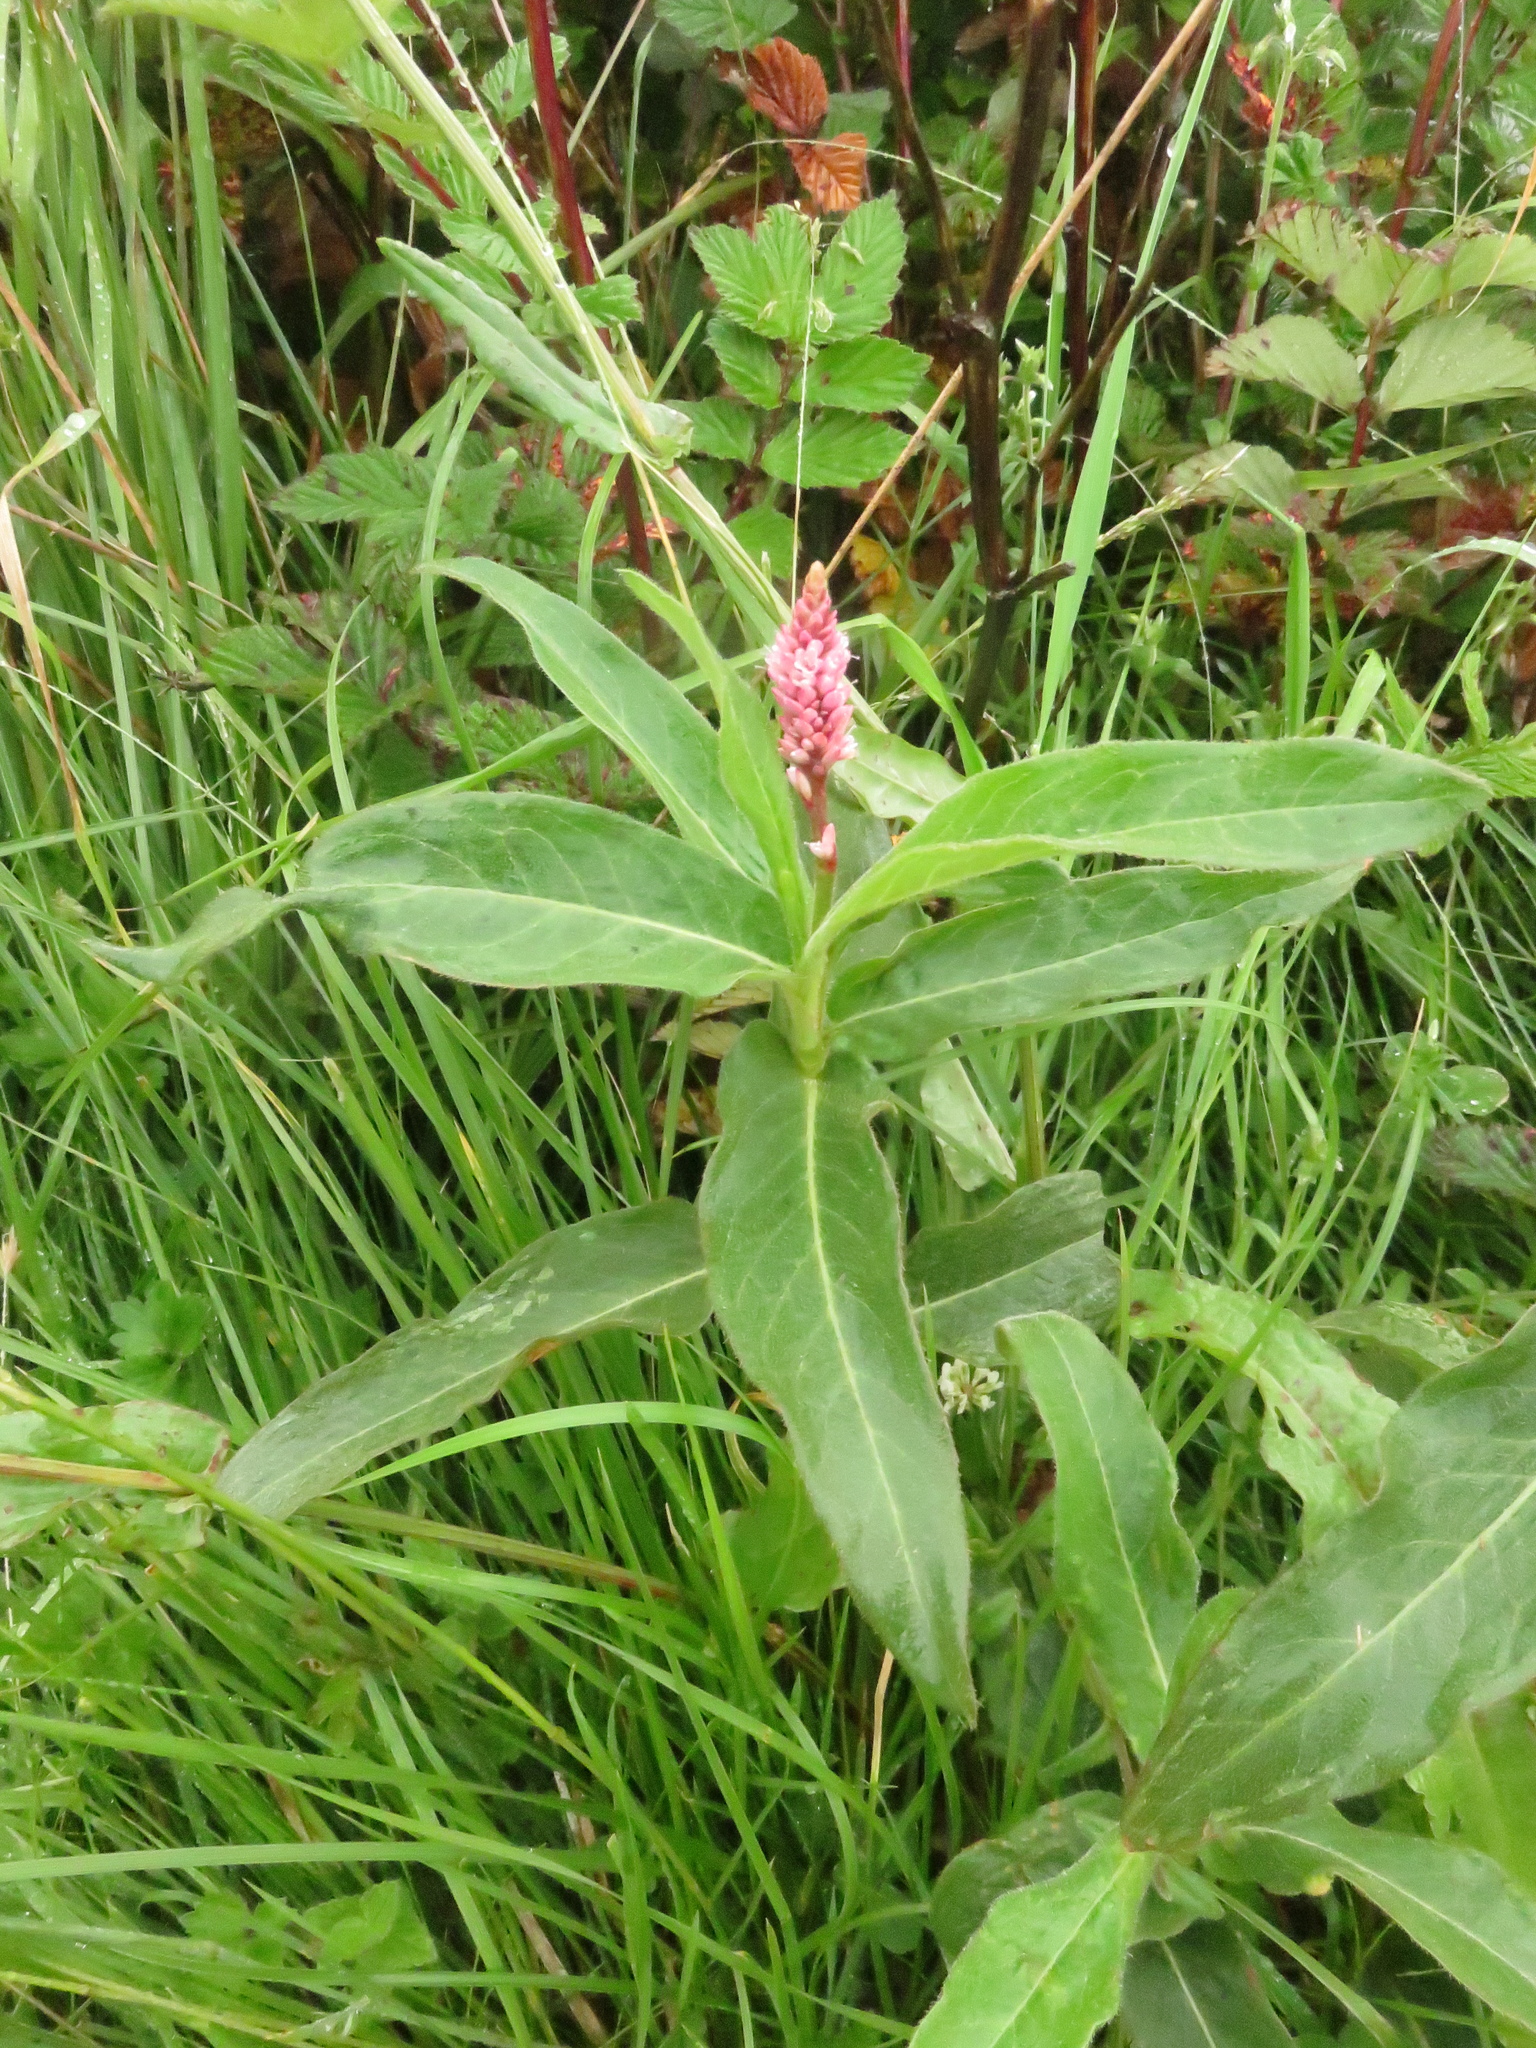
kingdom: Plantae
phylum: Tracheophyta
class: Magnoliopsida
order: Caryophyllales
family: Polygonaceae
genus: Persicaria
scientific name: Persicaria amphibia
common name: Amphibious bistort
